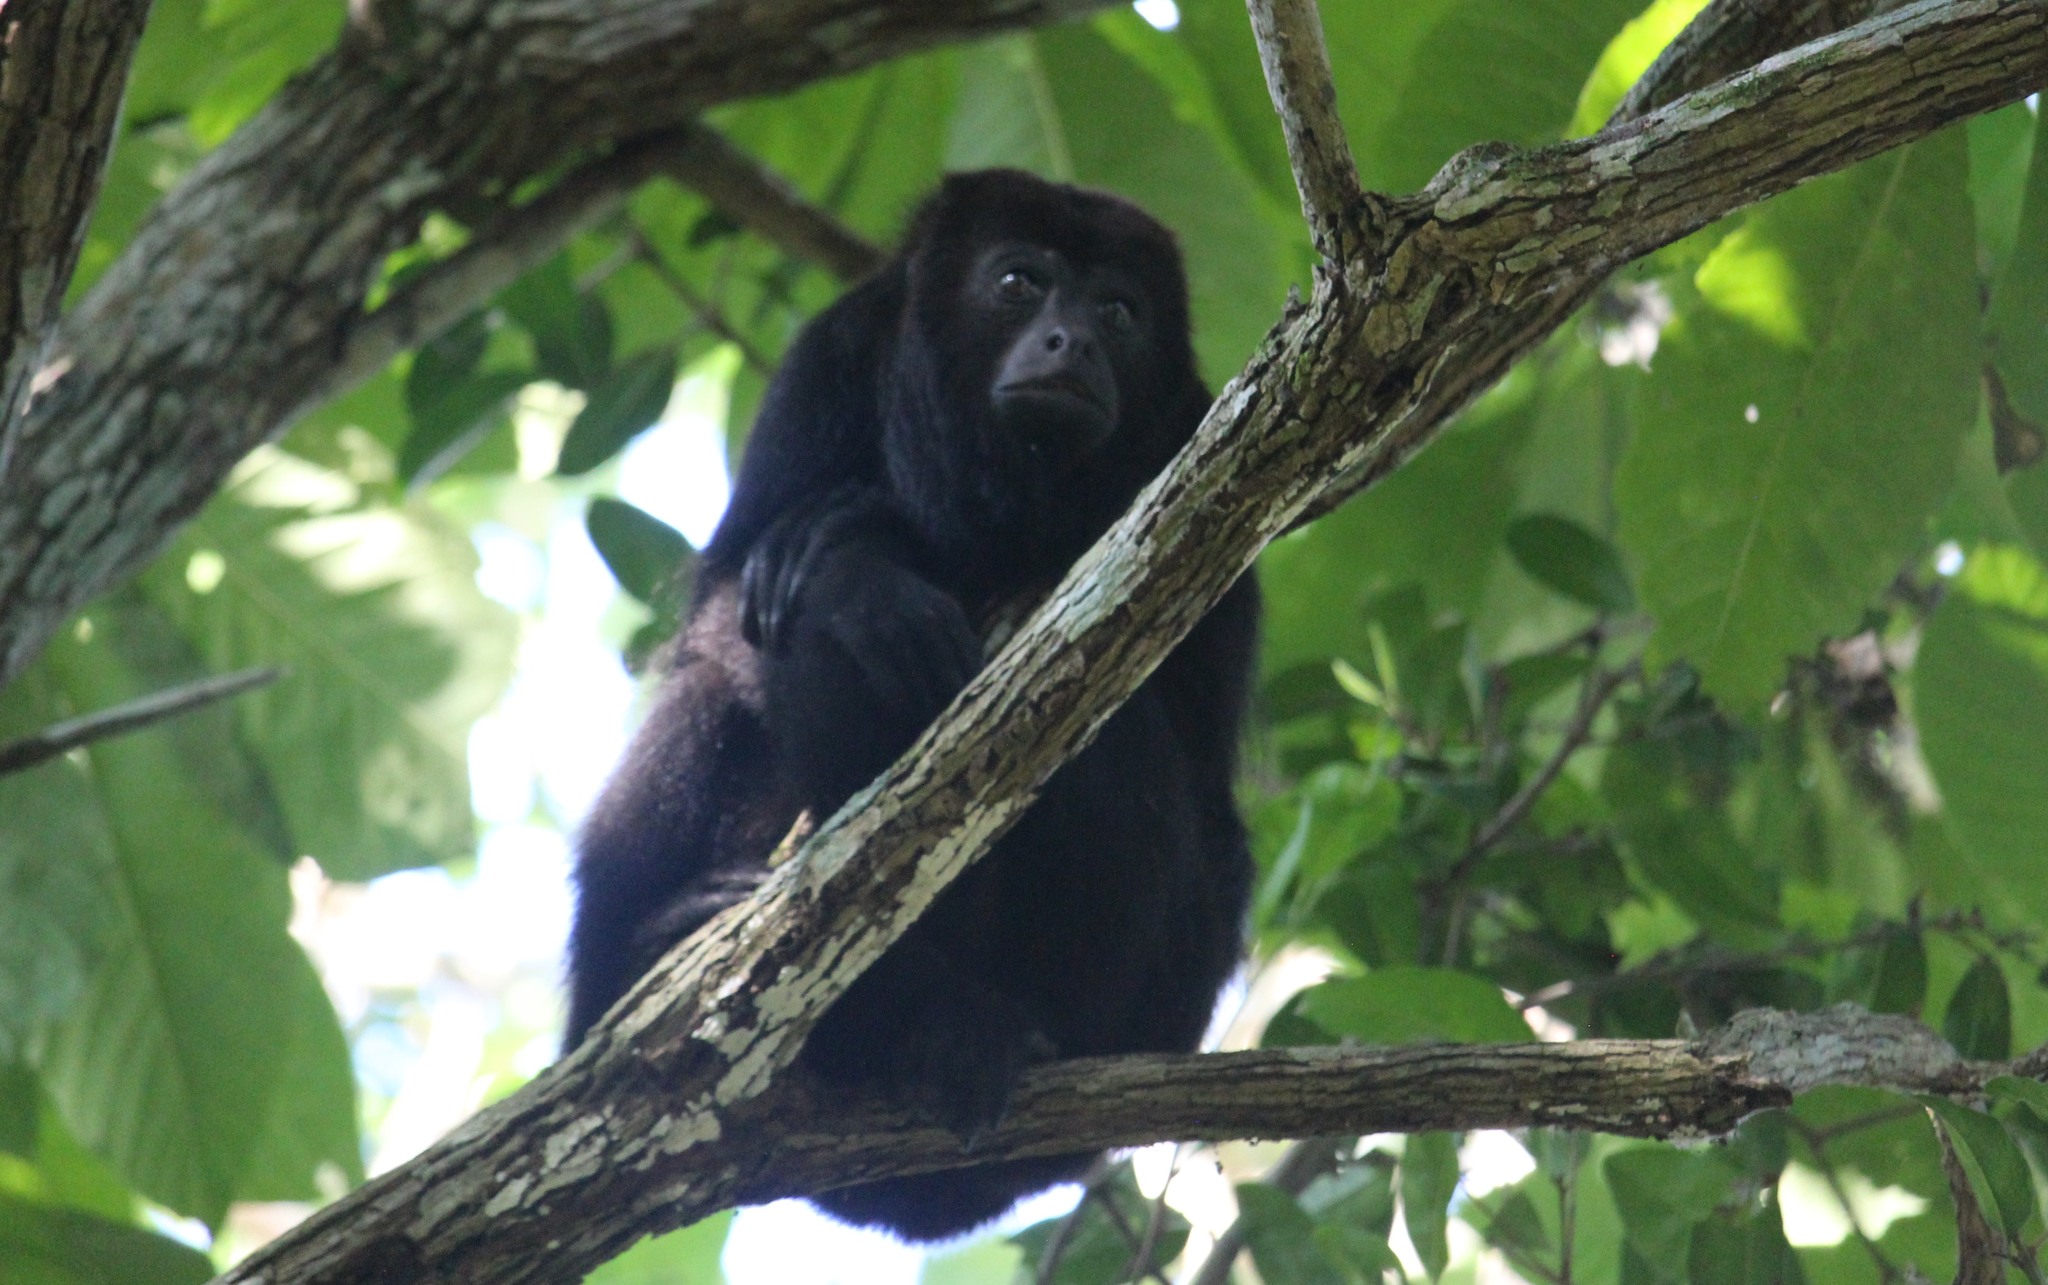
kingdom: Animalia
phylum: Chordata
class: Mammalia
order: Primates
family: Atelidae
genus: Alouatta
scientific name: Alouatta pigra
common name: Guatemalan black howler
